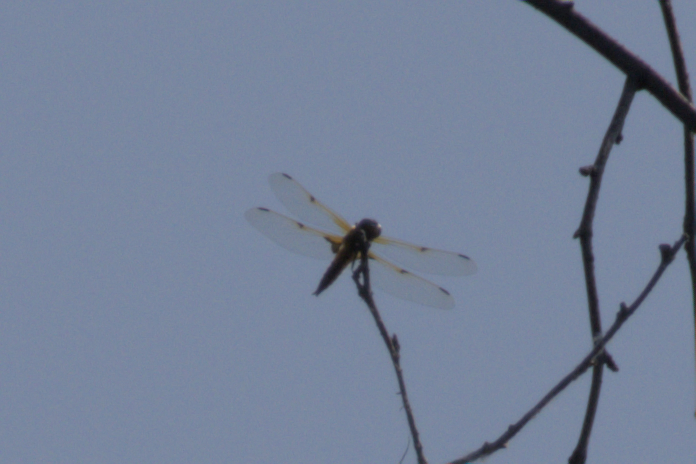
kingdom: Animalia
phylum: Arthropoda
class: Insecta
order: Odonata
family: Libellulidae
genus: Libellula
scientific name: Libellula quadrimaculata
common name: Four-spotted chaser
